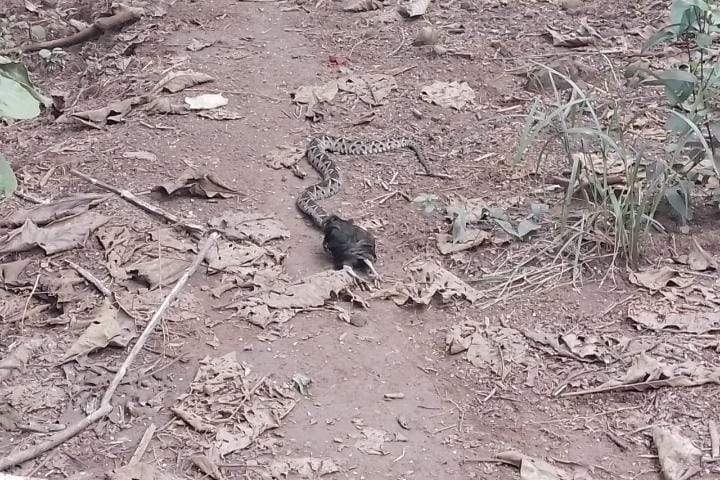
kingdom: Animalia
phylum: Chordata
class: Squamata
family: Viperidae
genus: Bothrops
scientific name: Bothrops asper
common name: Terciopelo
